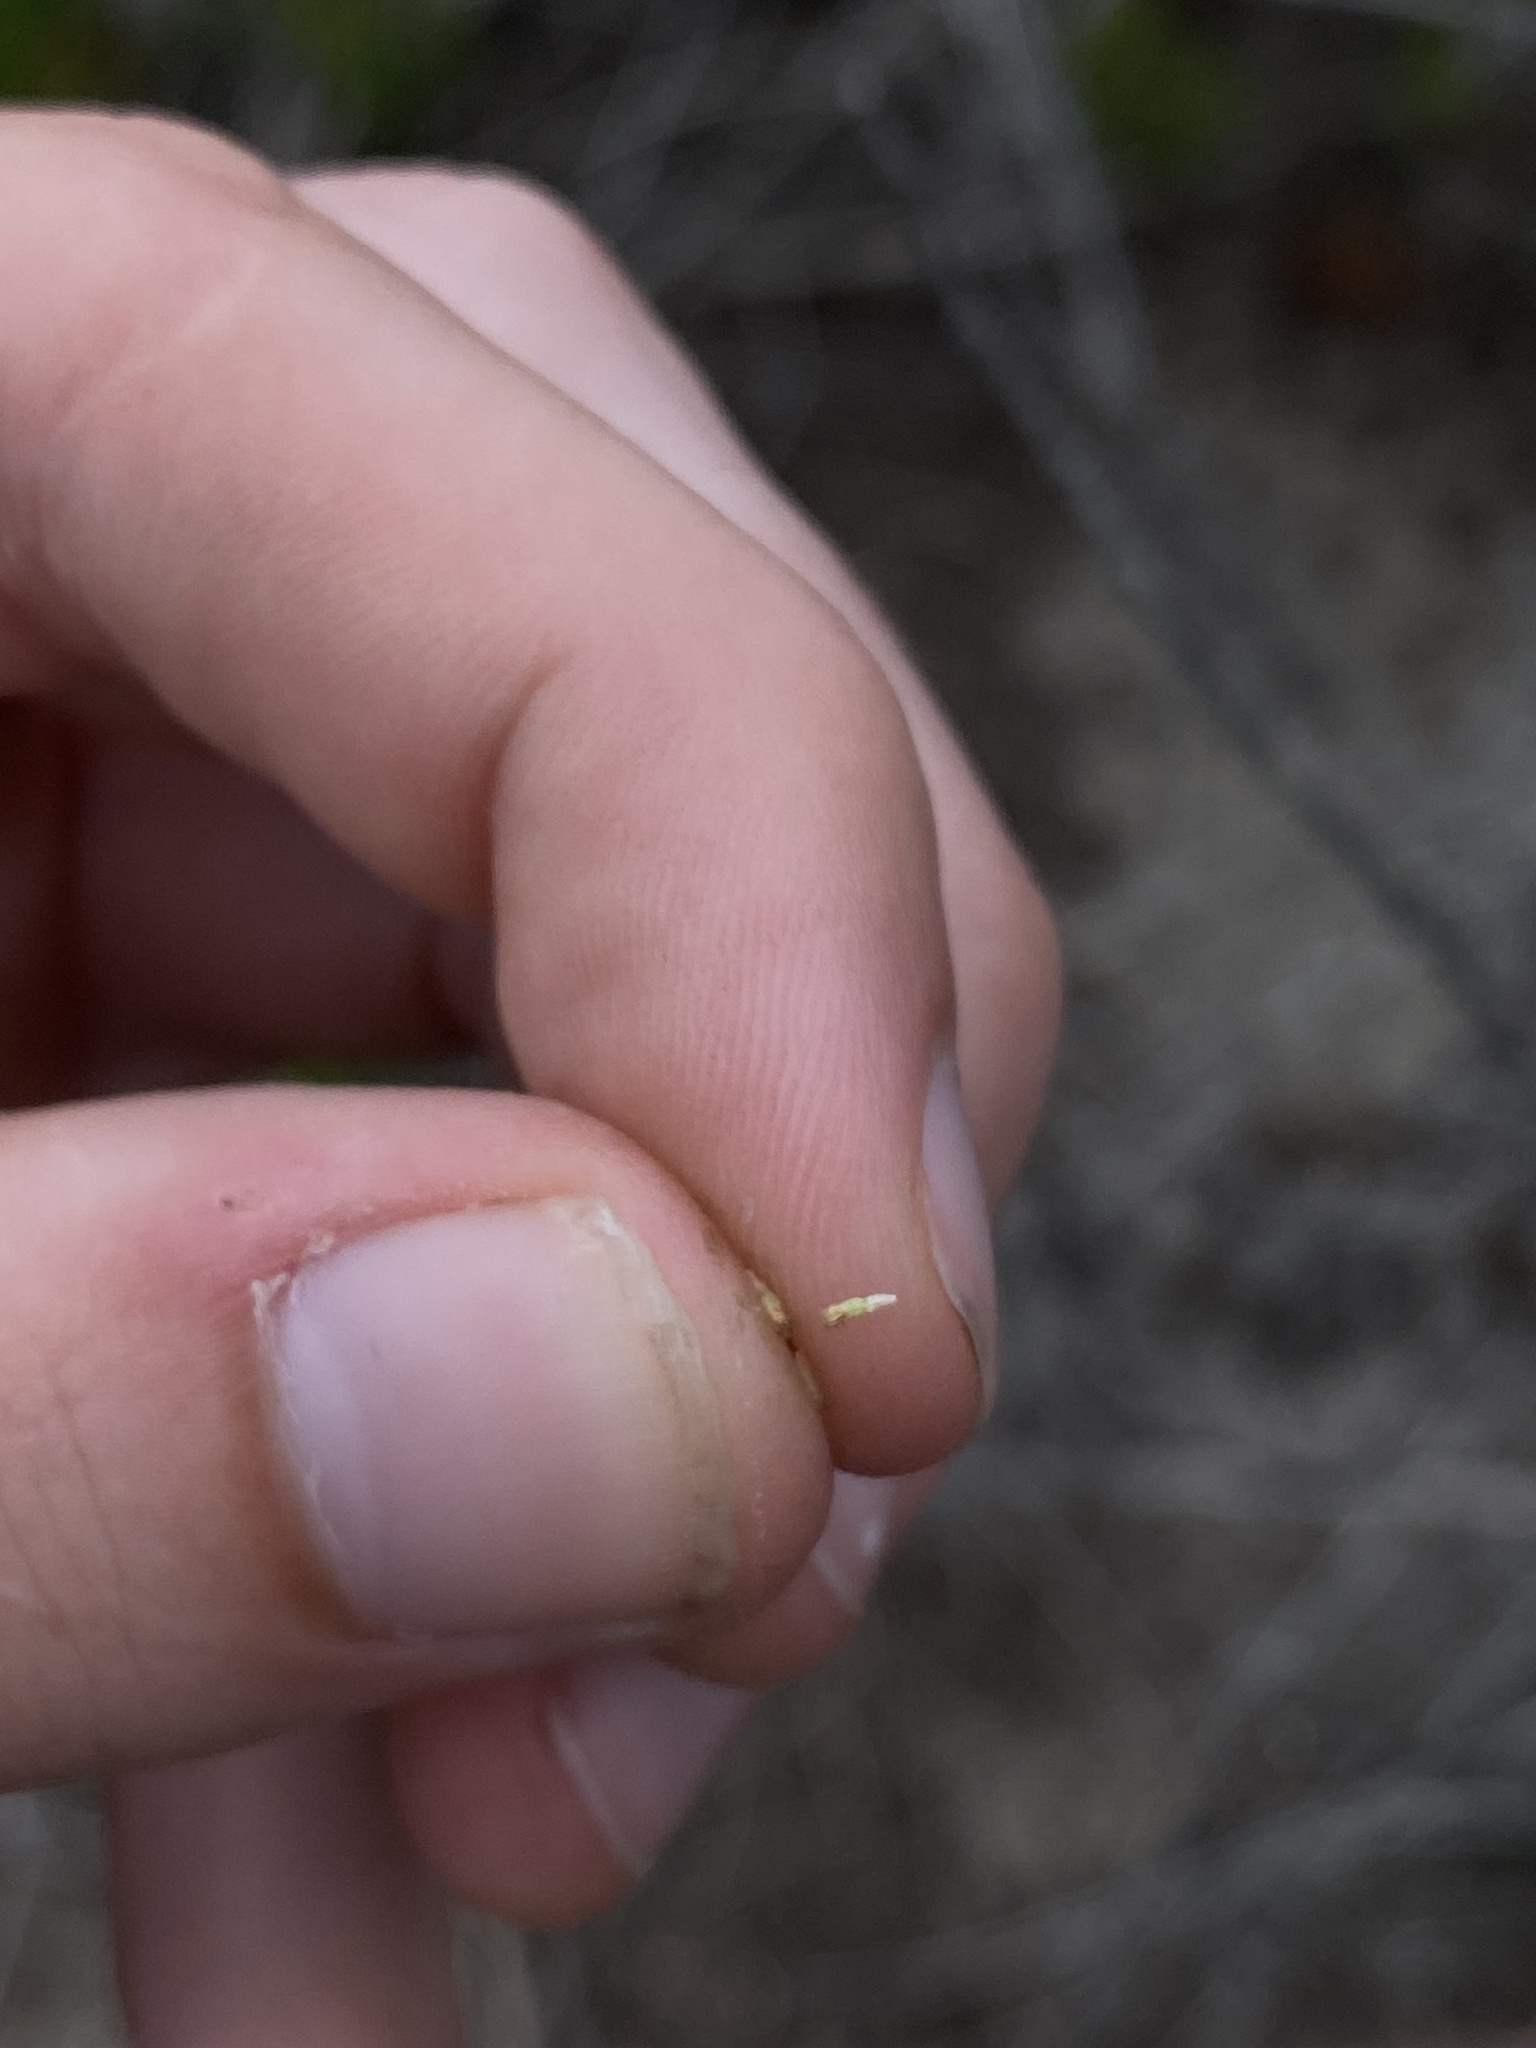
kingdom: Plantae
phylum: Tracheophyta
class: Magnoliopsida
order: Asterales
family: Asteraceae
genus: Artemisia
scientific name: Artemisia californica
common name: California sagebrush
